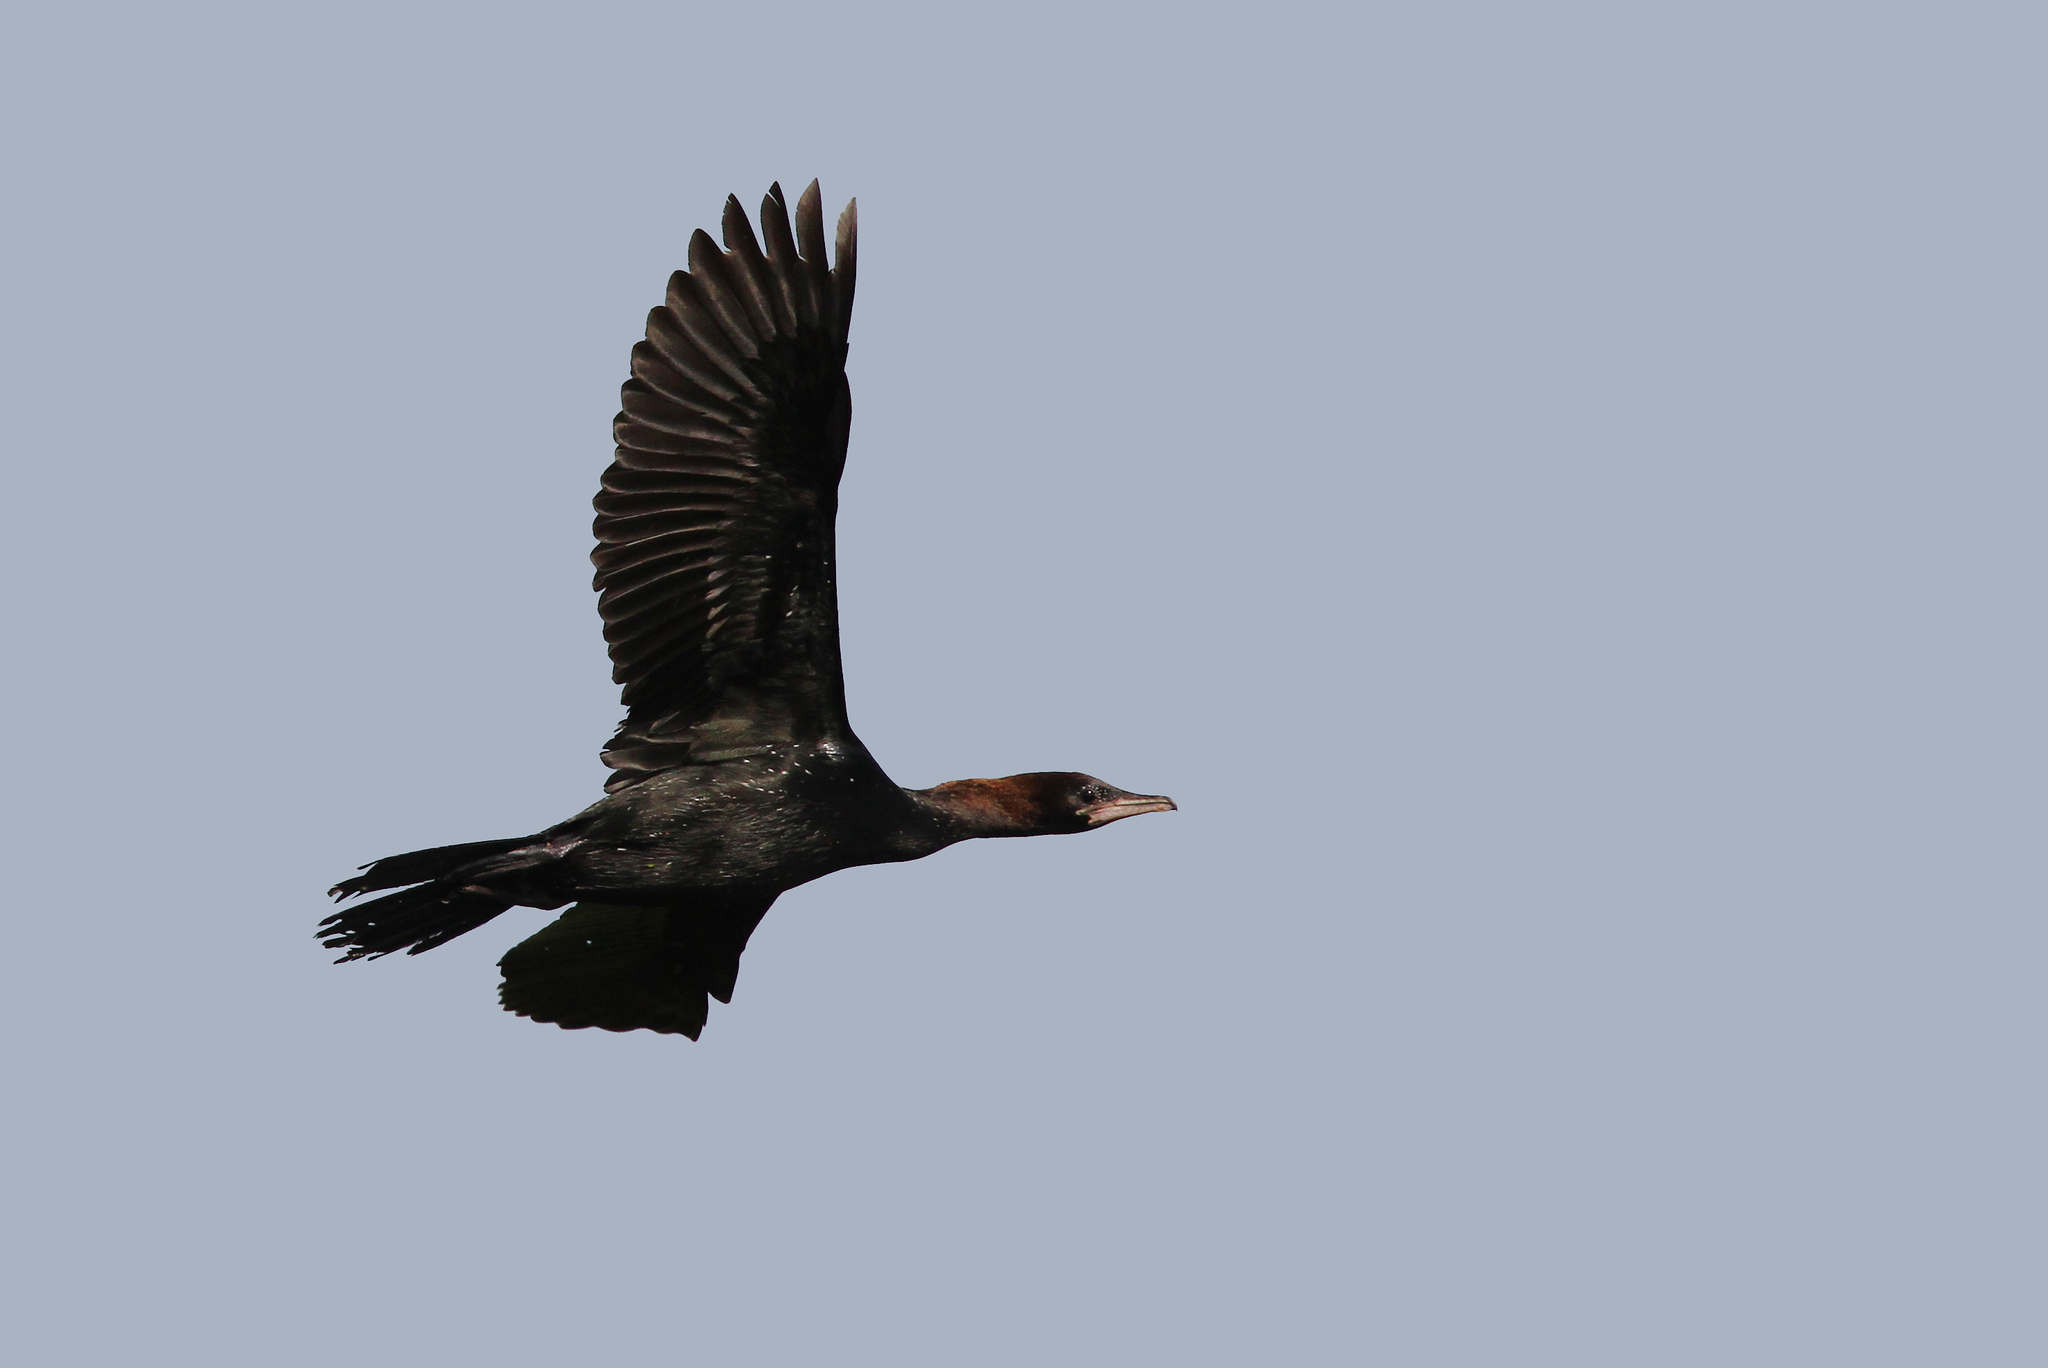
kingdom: Animalia
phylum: Chordata
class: Aves
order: Suliformes
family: Phalacrocoracidae
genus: Microcarbo
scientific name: Microcarbo pygmaeus
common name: Pygmy cormorant
